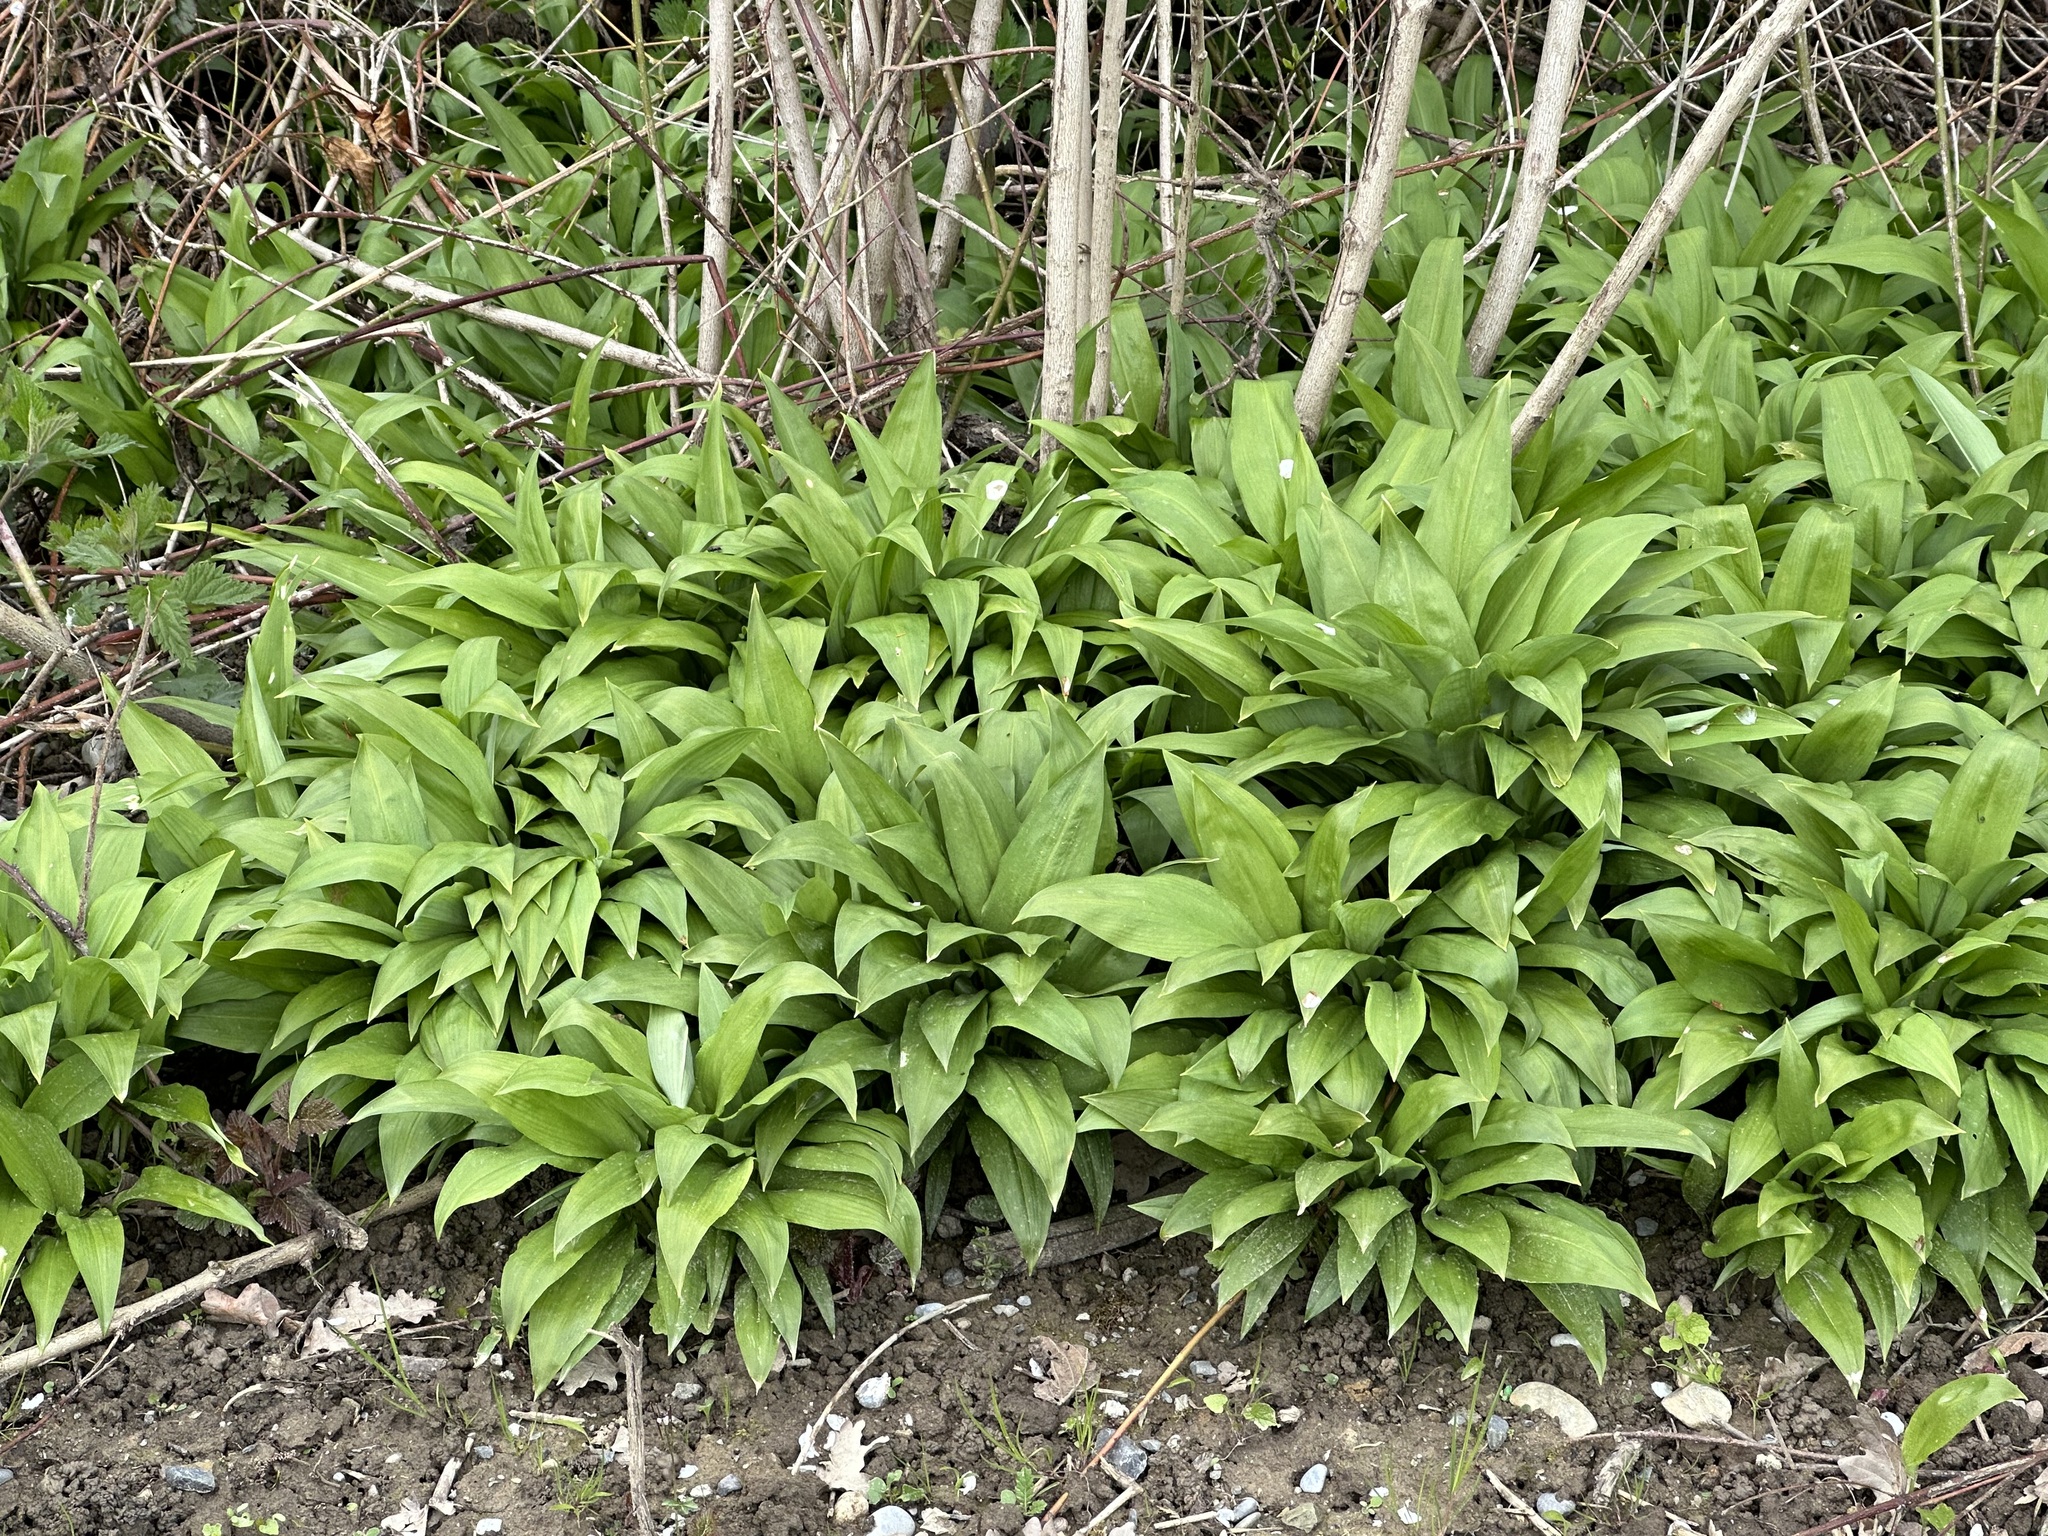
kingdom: Plantae
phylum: Tracheophyta
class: Liliopsida
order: Asparagales
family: Amaryllidaceae
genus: Allium
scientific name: Allium ursinum
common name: Ramsons
